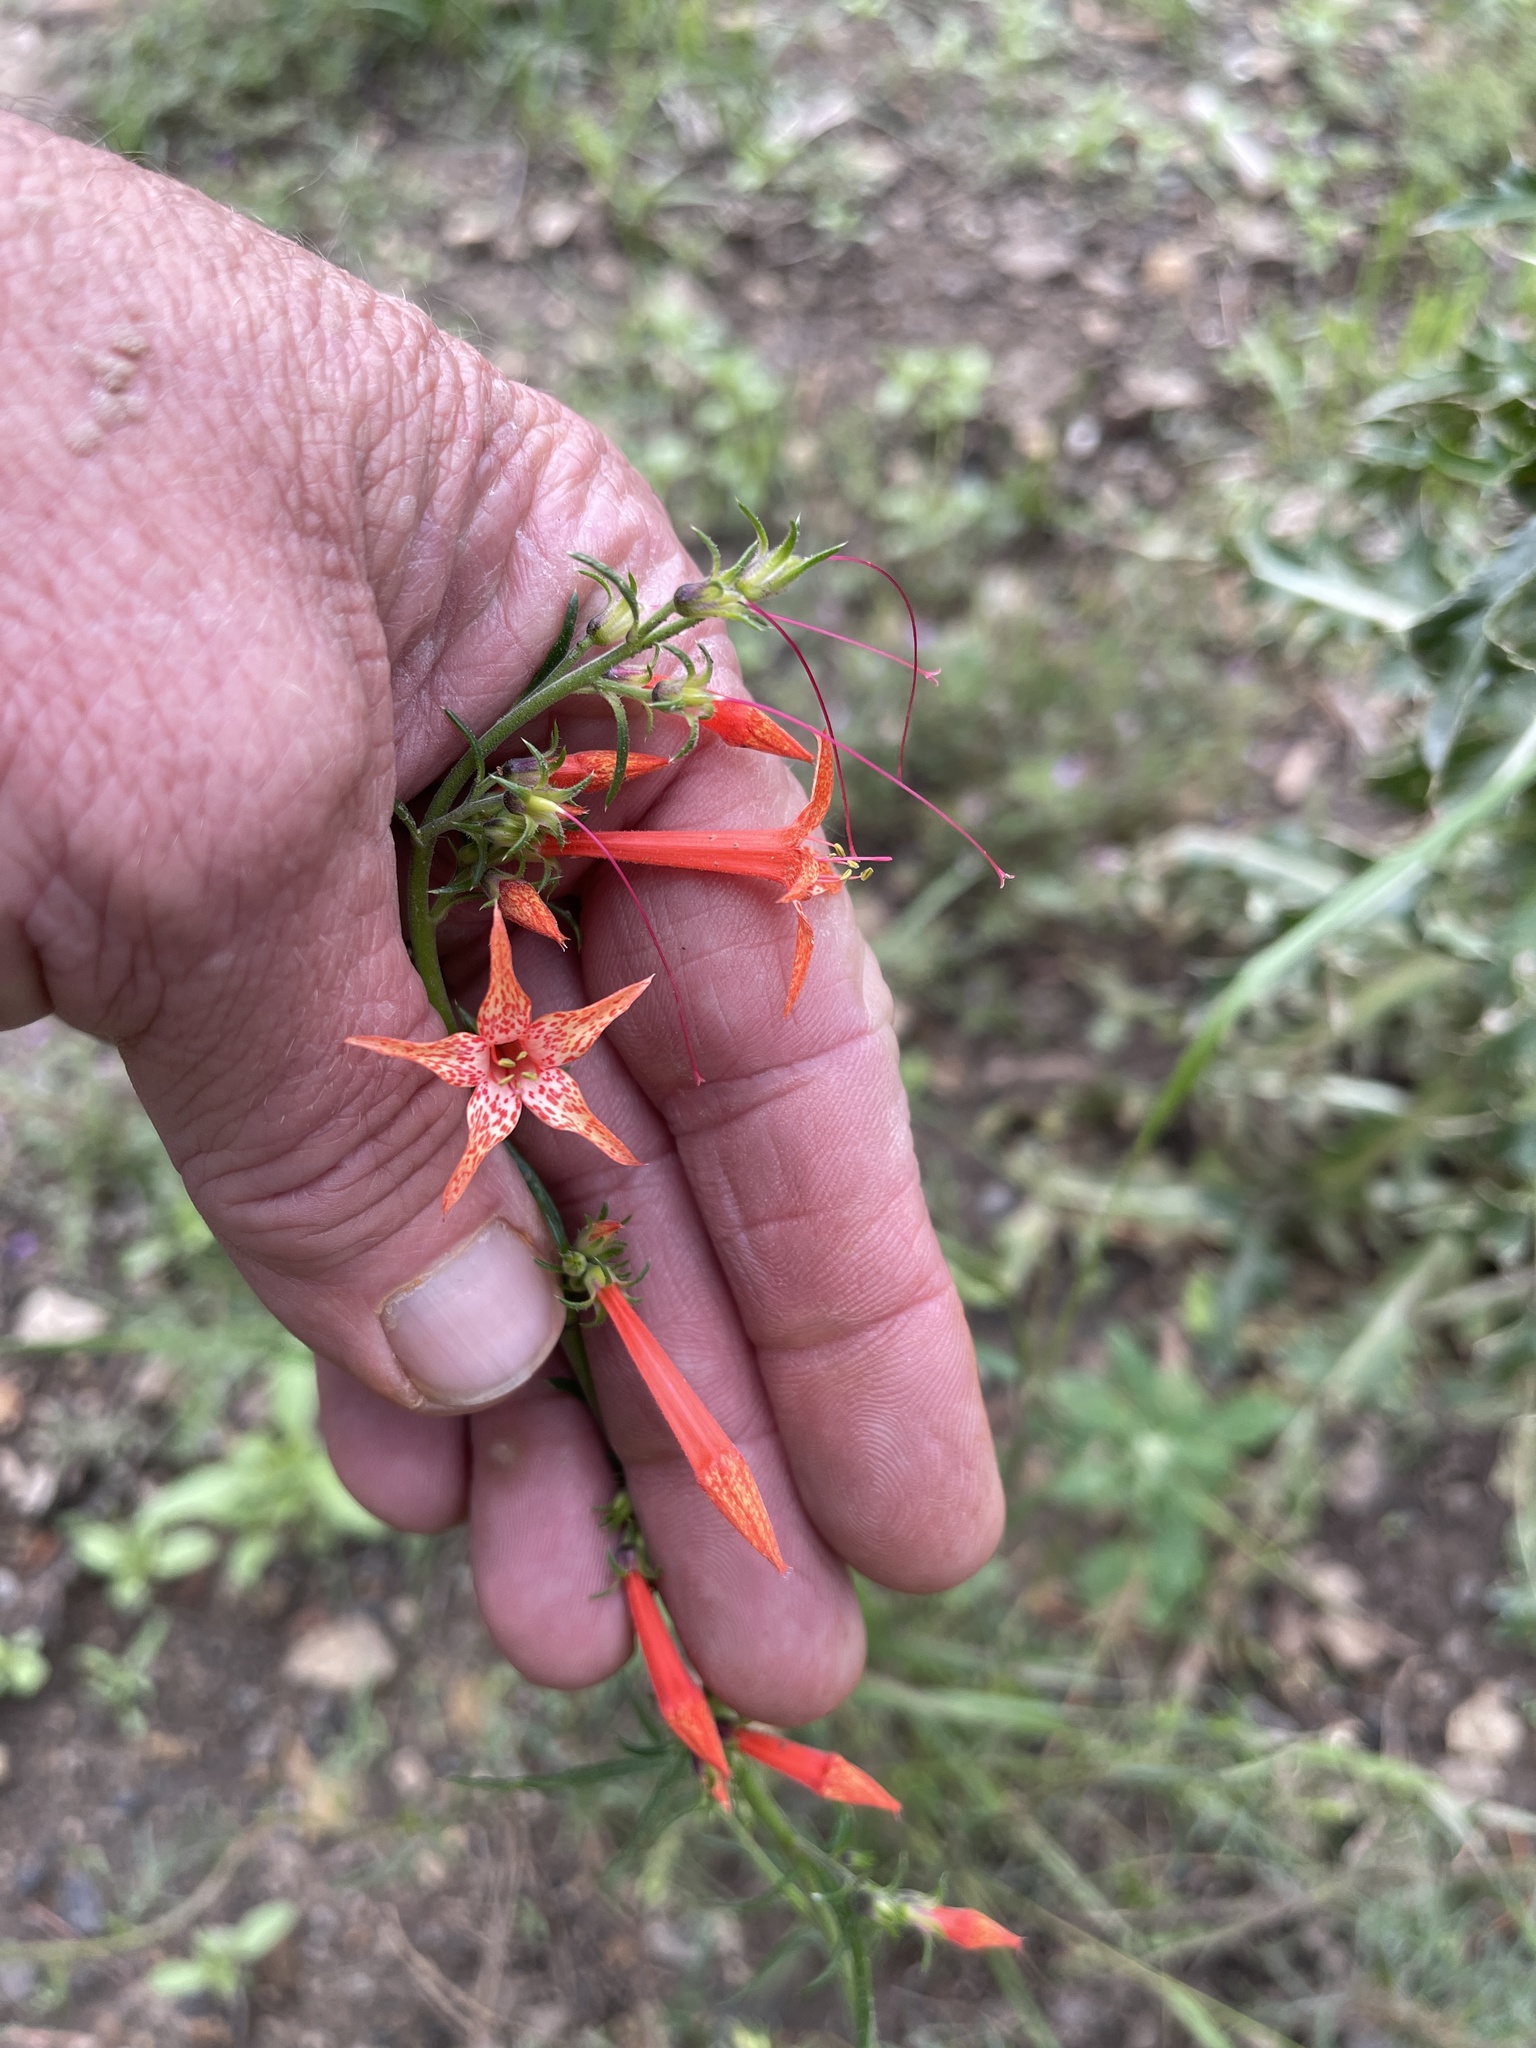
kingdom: Plantae
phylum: Tracheophyta
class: Magnoliopsida
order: Ericales
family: Polemoniaceae
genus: Ipomopsis
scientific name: Ipomopsis aggregata
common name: Scarlet gilia
